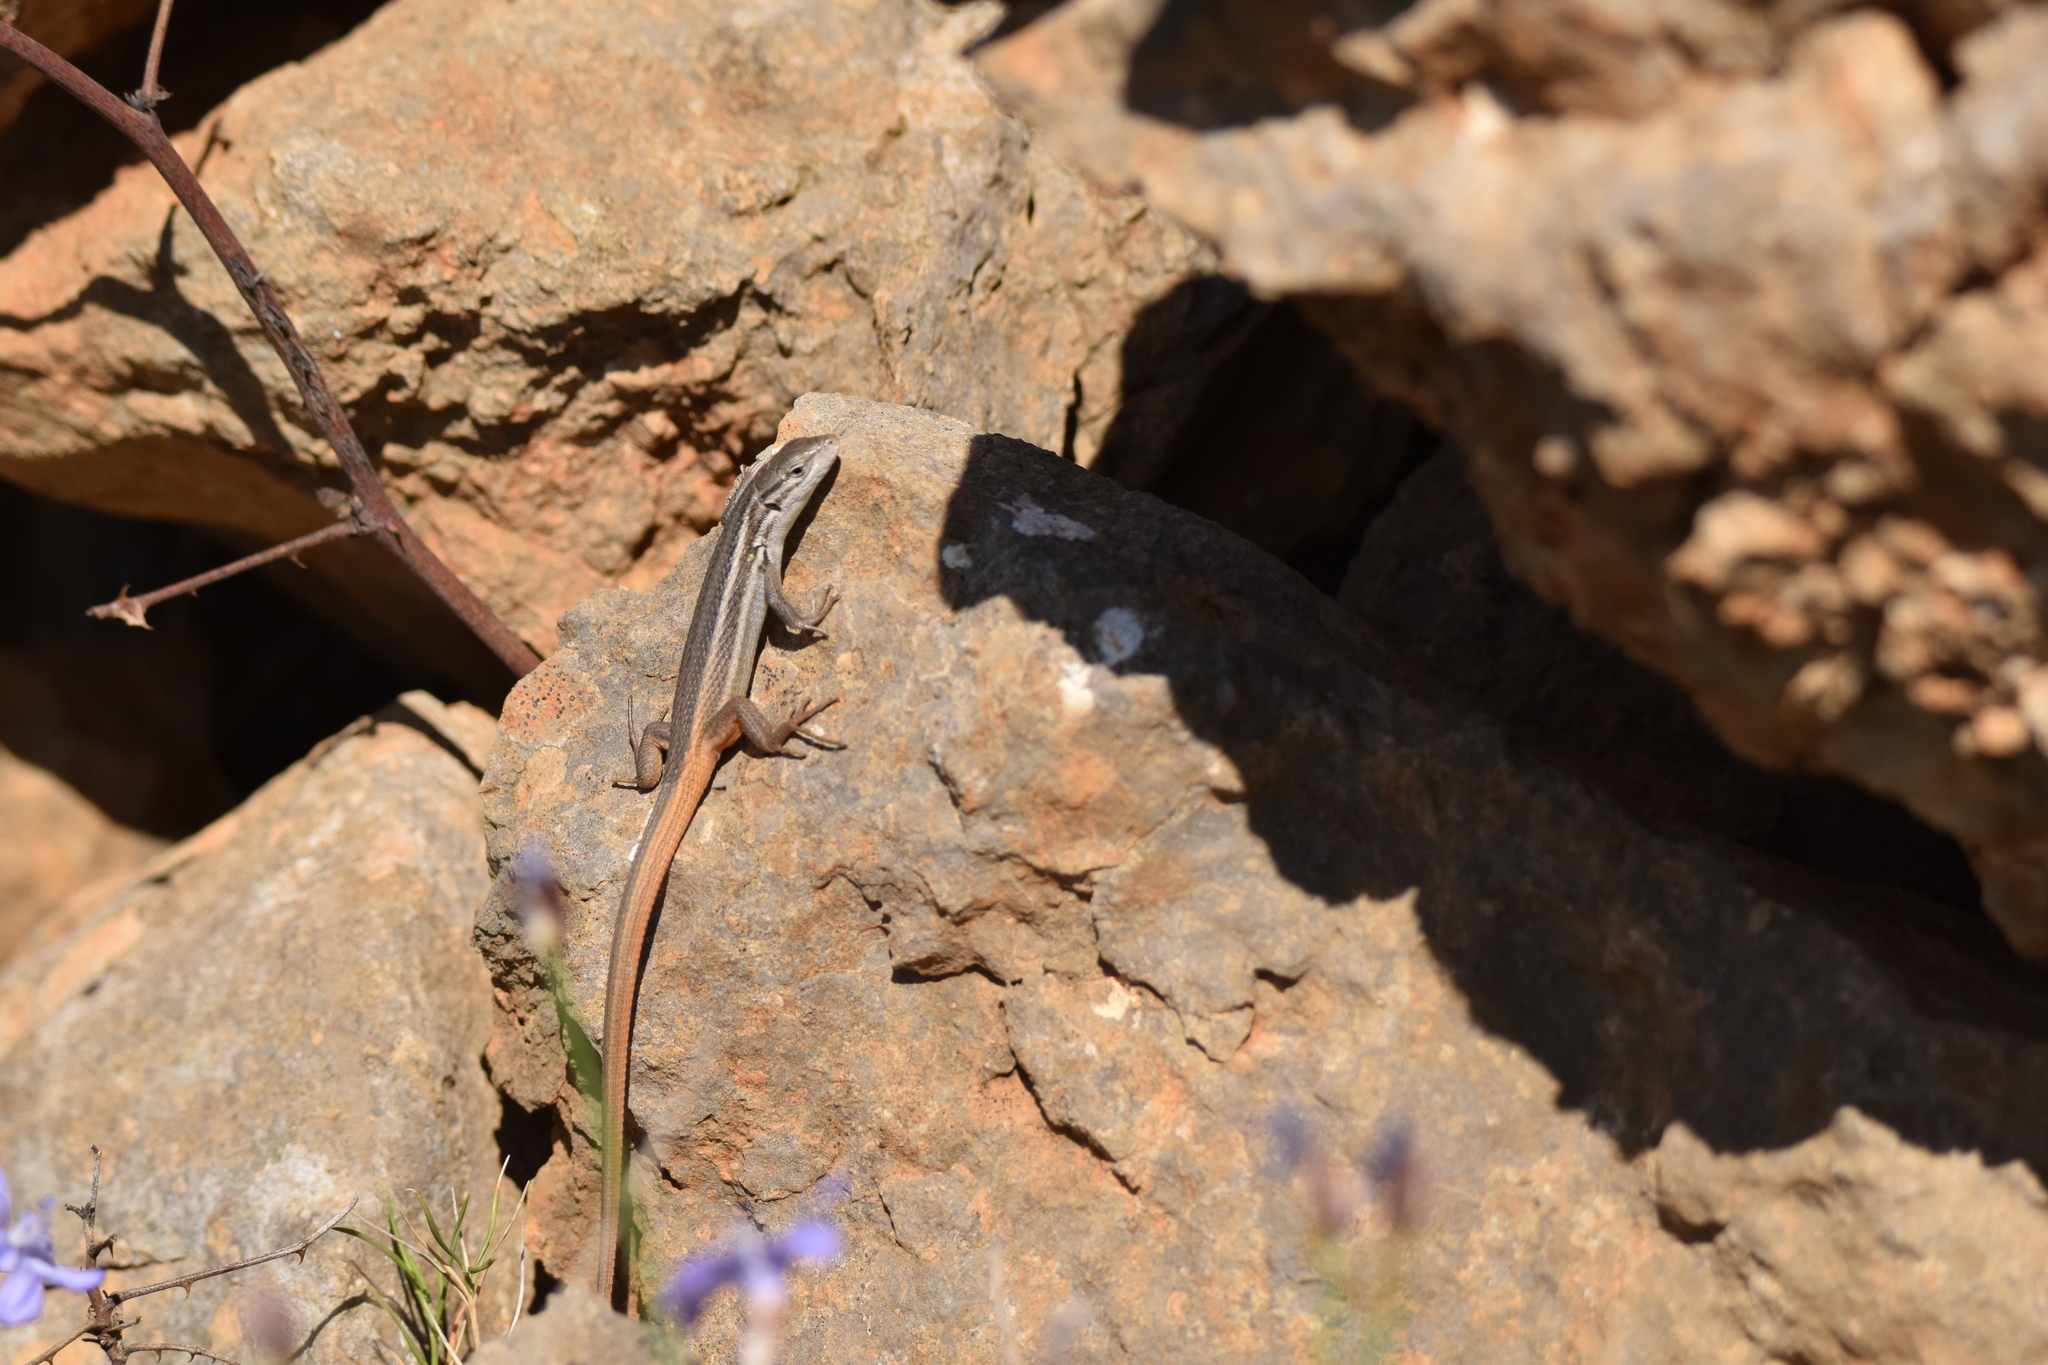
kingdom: Animalia
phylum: Chordata
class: Squamata
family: Lacertidae
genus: Psammodromus
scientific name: Psammodromus algirus
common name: Algerian psammodromus
